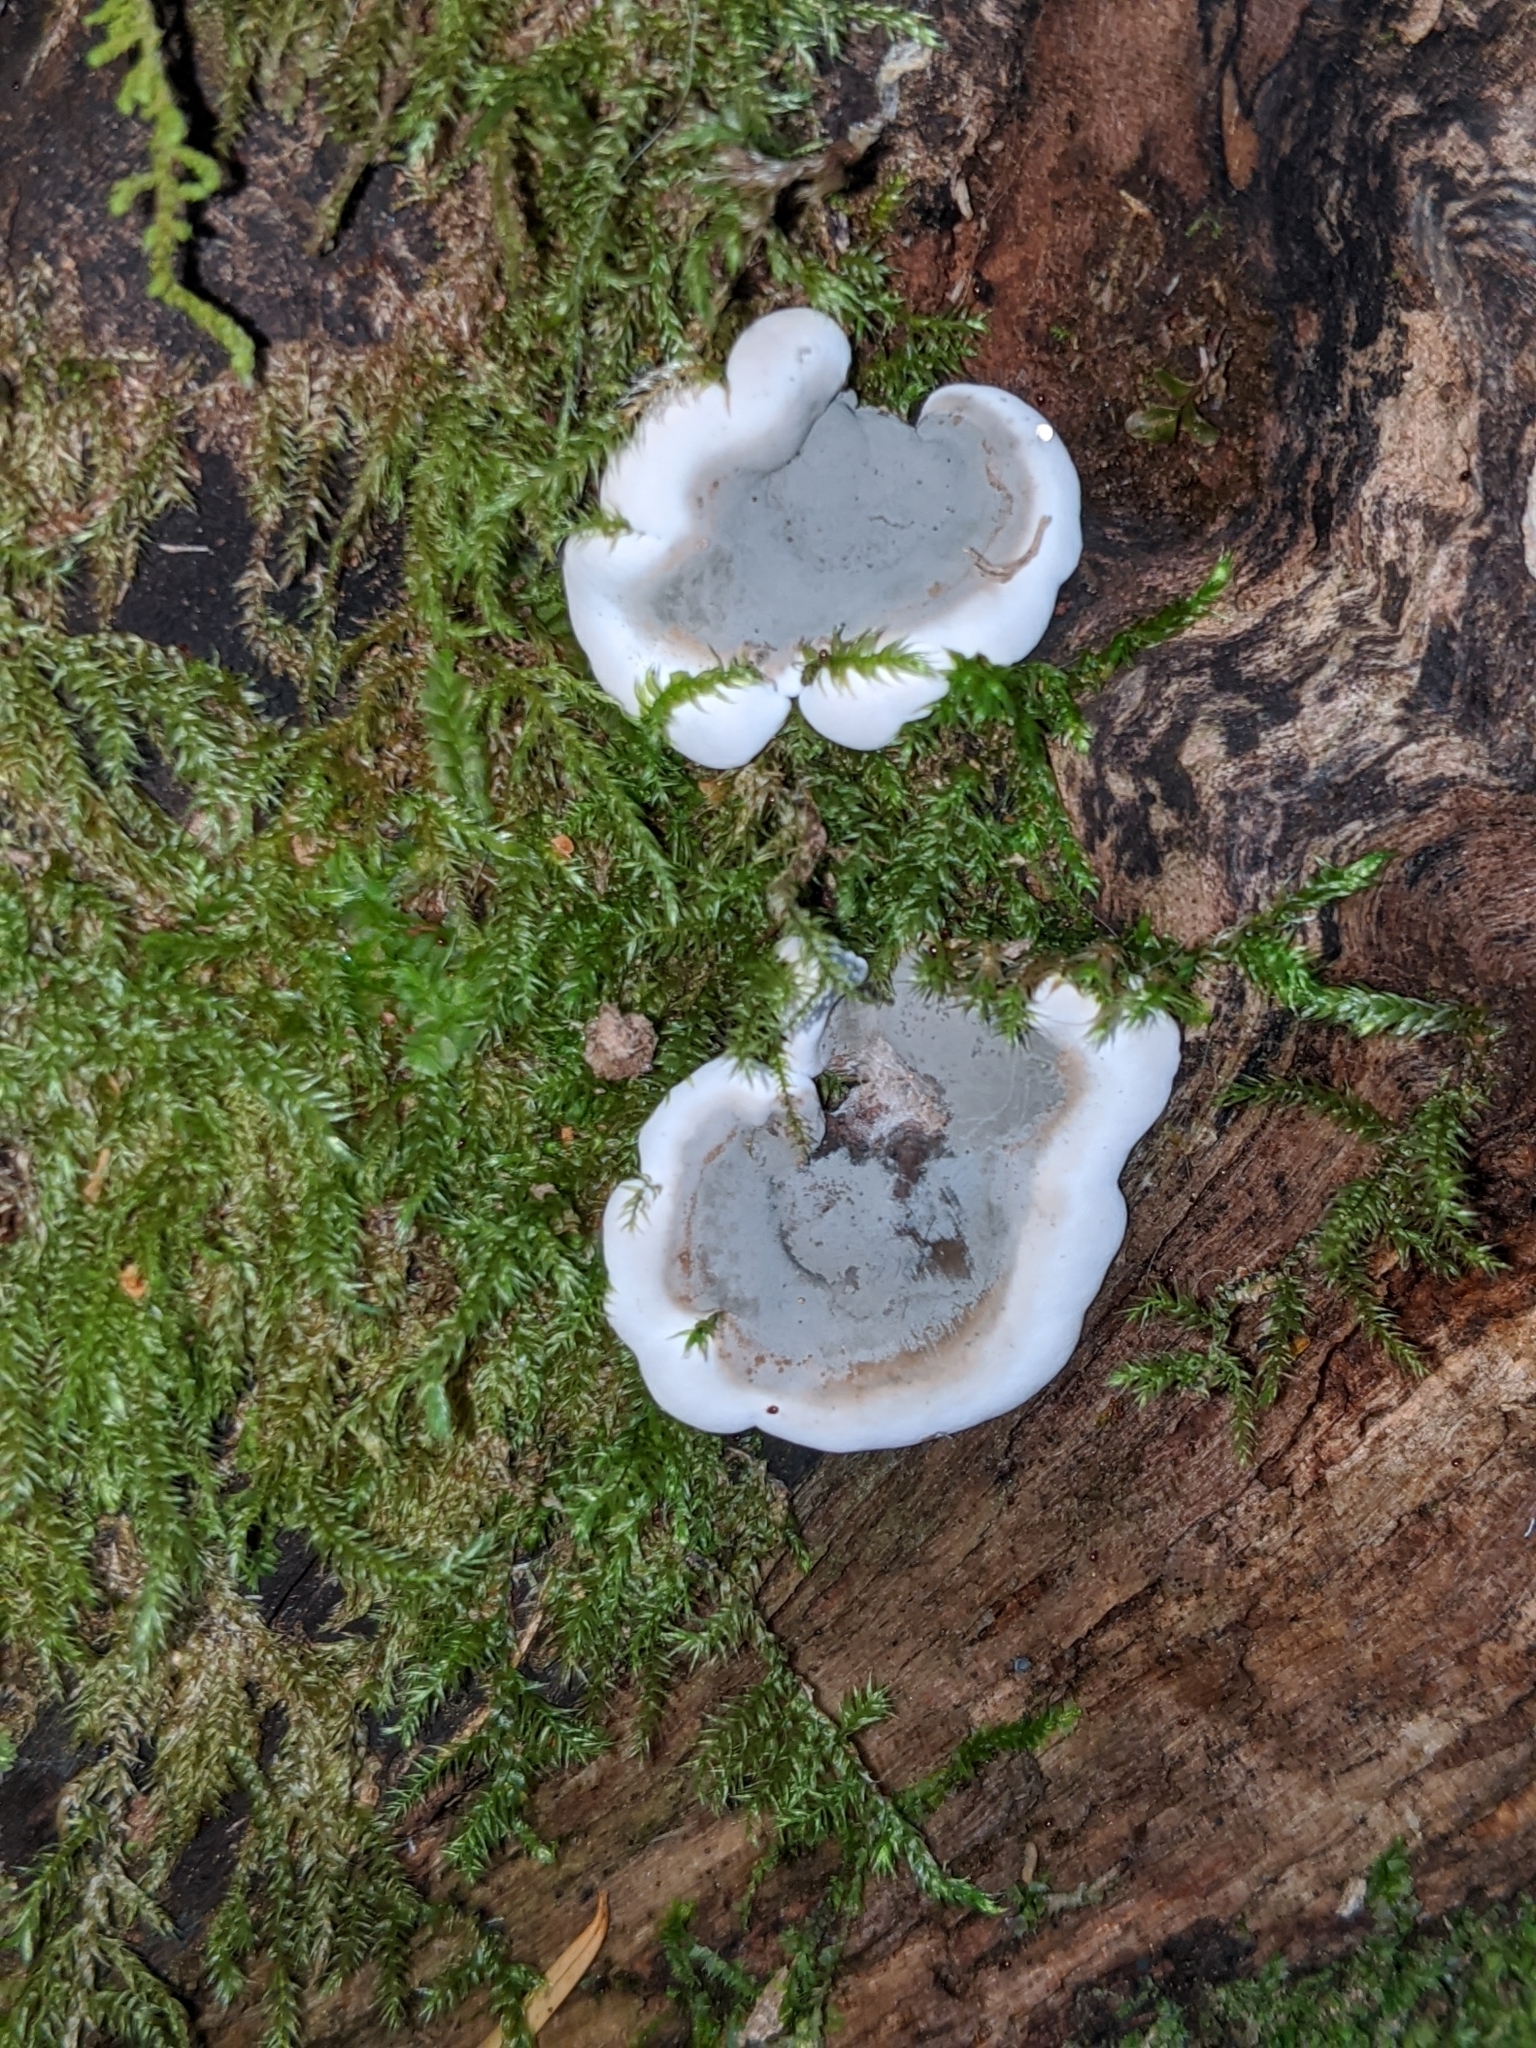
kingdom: Fungi
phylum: Ascomycota
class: Sordariomycetes
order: Xylariales
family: Xylariaceae
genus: Kretzschmaria
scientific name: Kretzschmaria deusta
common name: Brittle cinder
